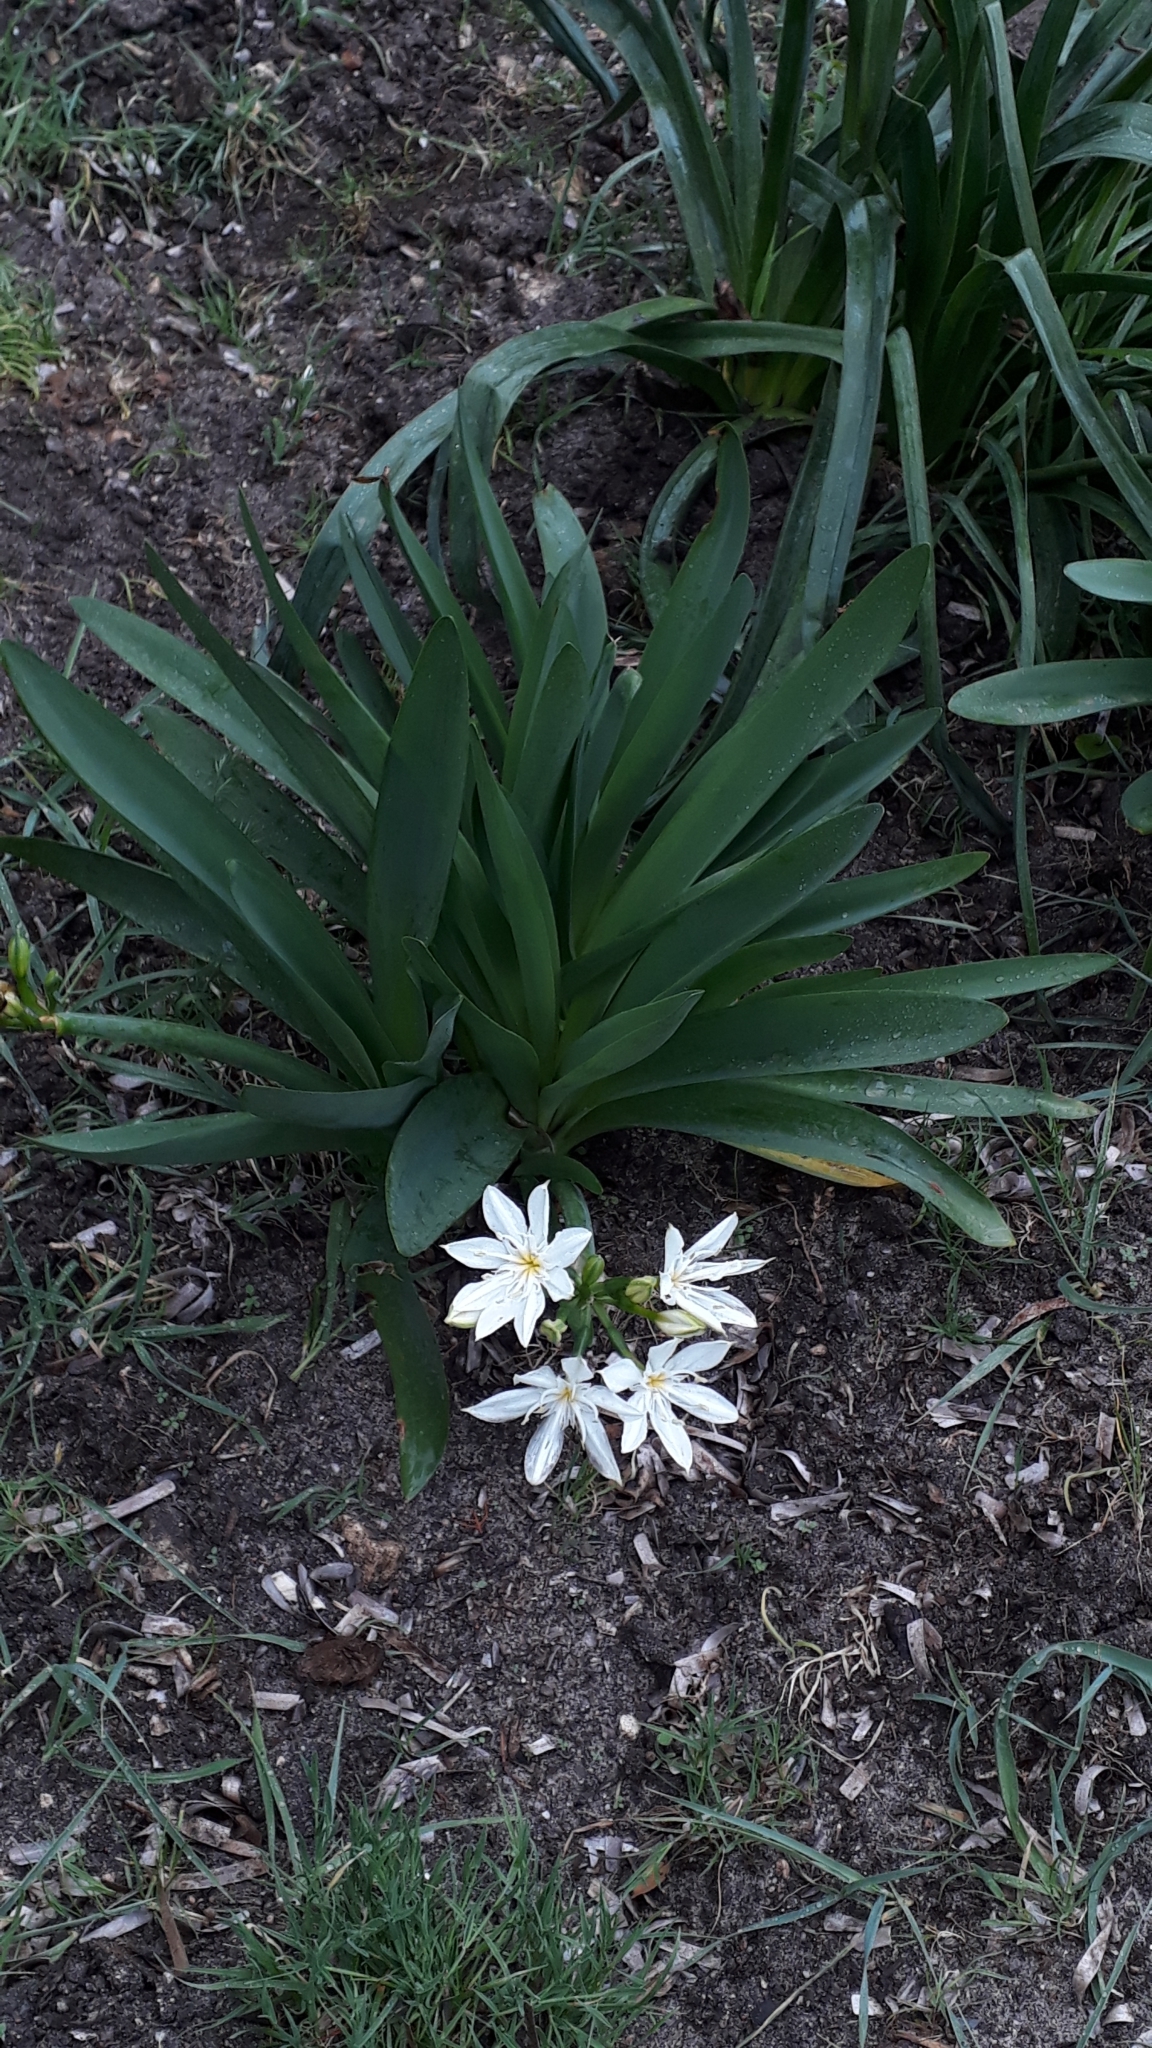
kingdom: Plantae
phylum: Tracheophyta
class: Liliopsida
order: Asparagales
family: Amaryllidaceae
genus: Pancratium
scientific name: Pancratium illyricum
